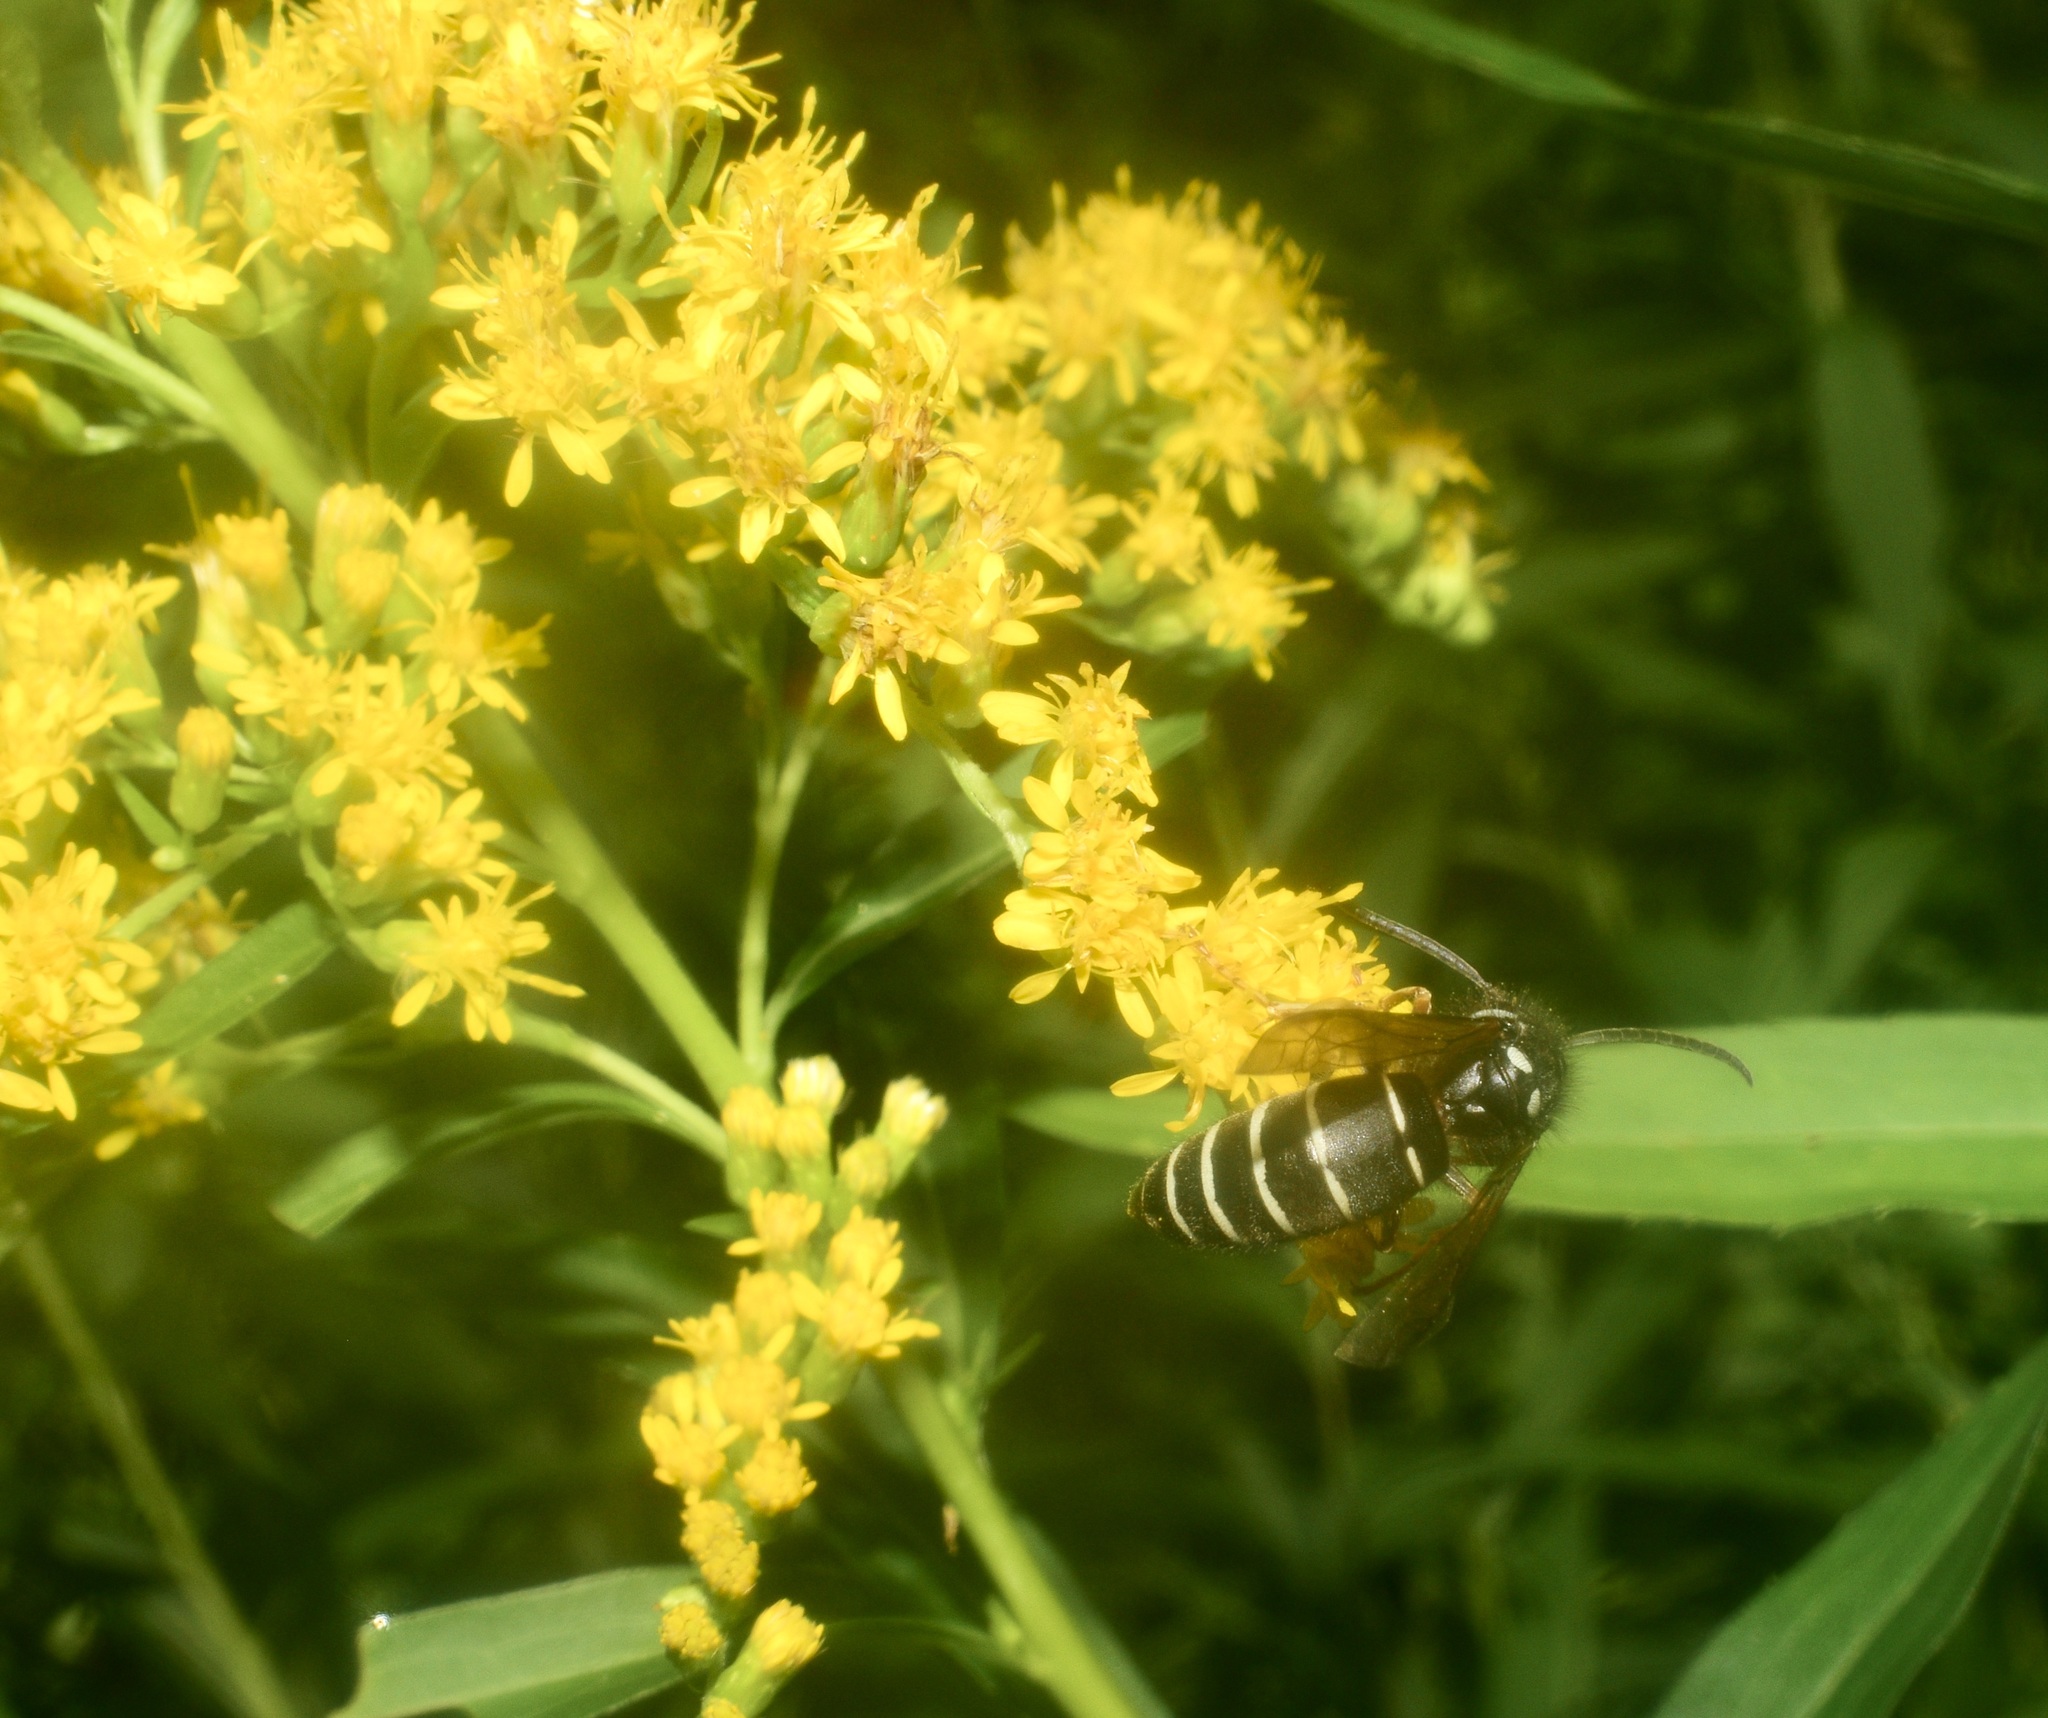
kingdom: Animalia
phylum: Arthropoda
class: Insecta
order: Hymenoptera
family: Vespidae
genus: Vespula
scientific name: Vespula consobrina
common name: Blackjacket
